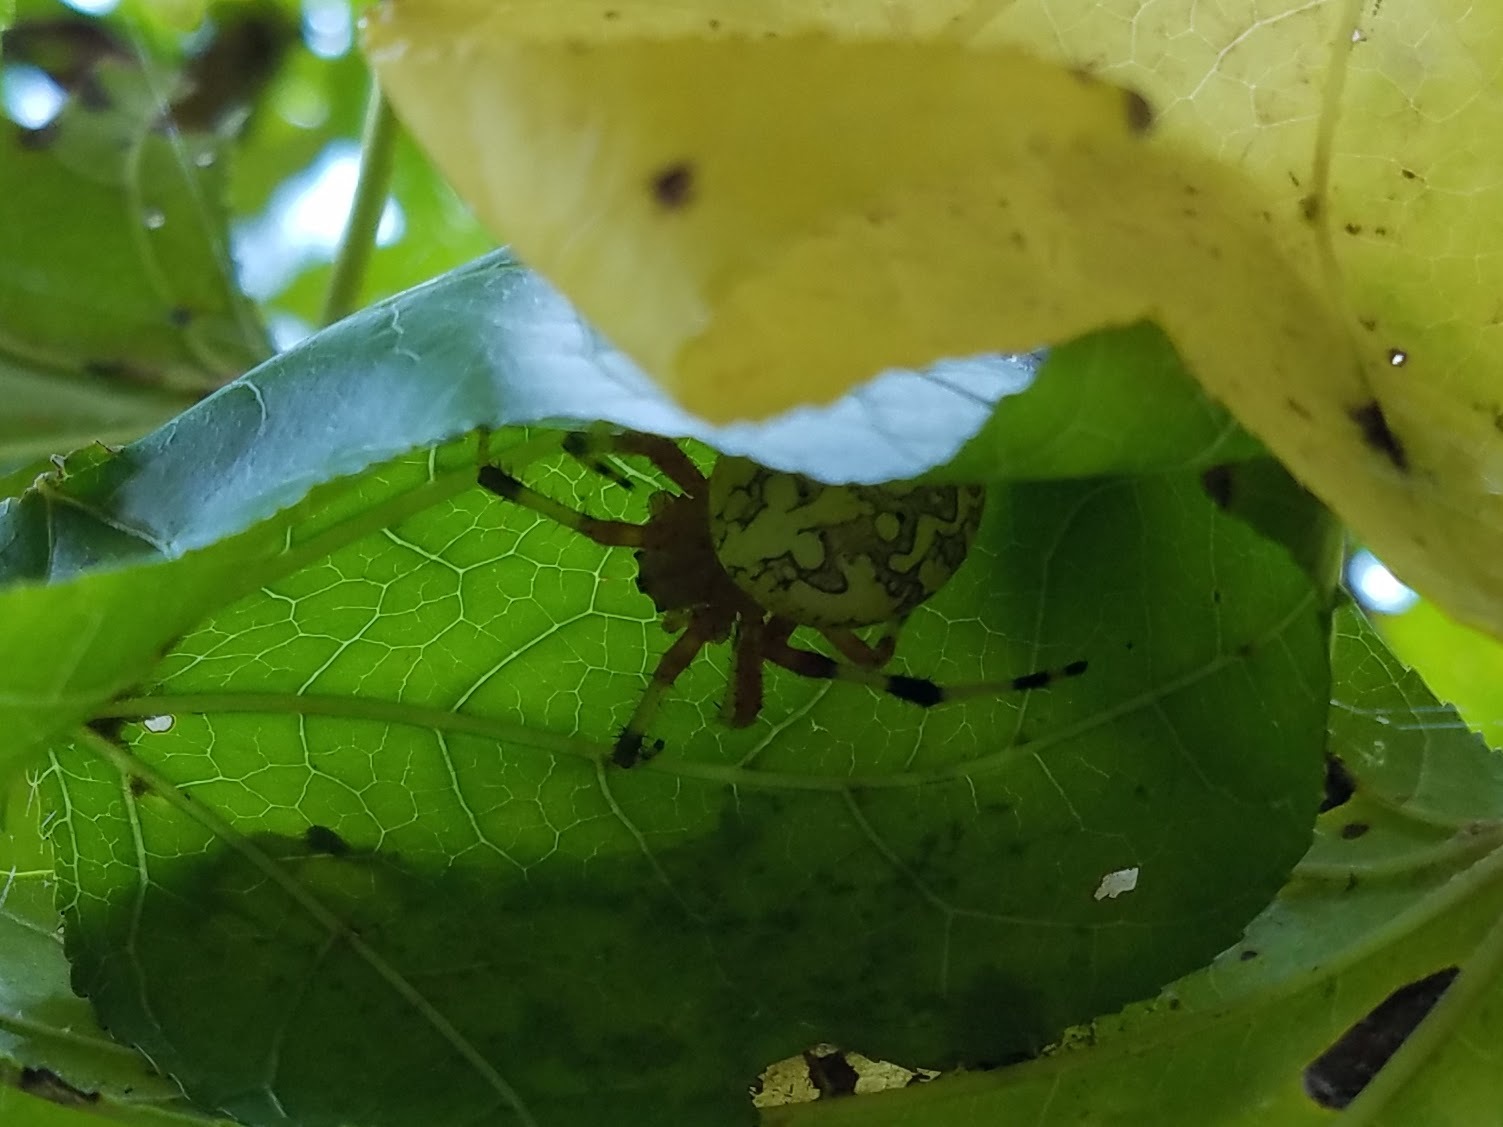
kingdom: Animalia
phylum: Arthropoda
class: Arachnida
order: Araneae
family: Araneidae
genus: Araneus
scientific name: Araneus marmoreus
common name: Marbled orbweaver
